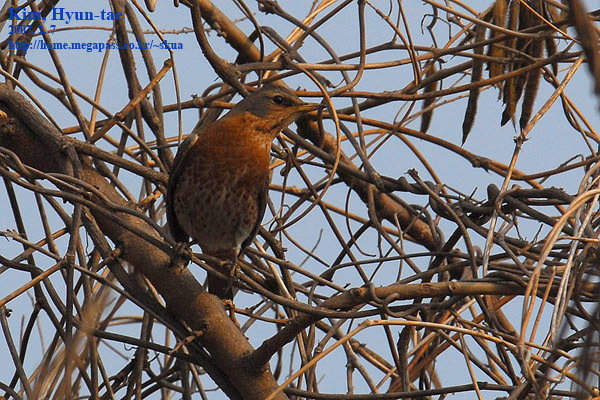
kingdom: Animalia
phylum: Chordata
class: Aves
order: Passeriformes
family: Turdidae
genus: Turdus
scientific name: Turdus naumanni
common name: Naumann's thrush
